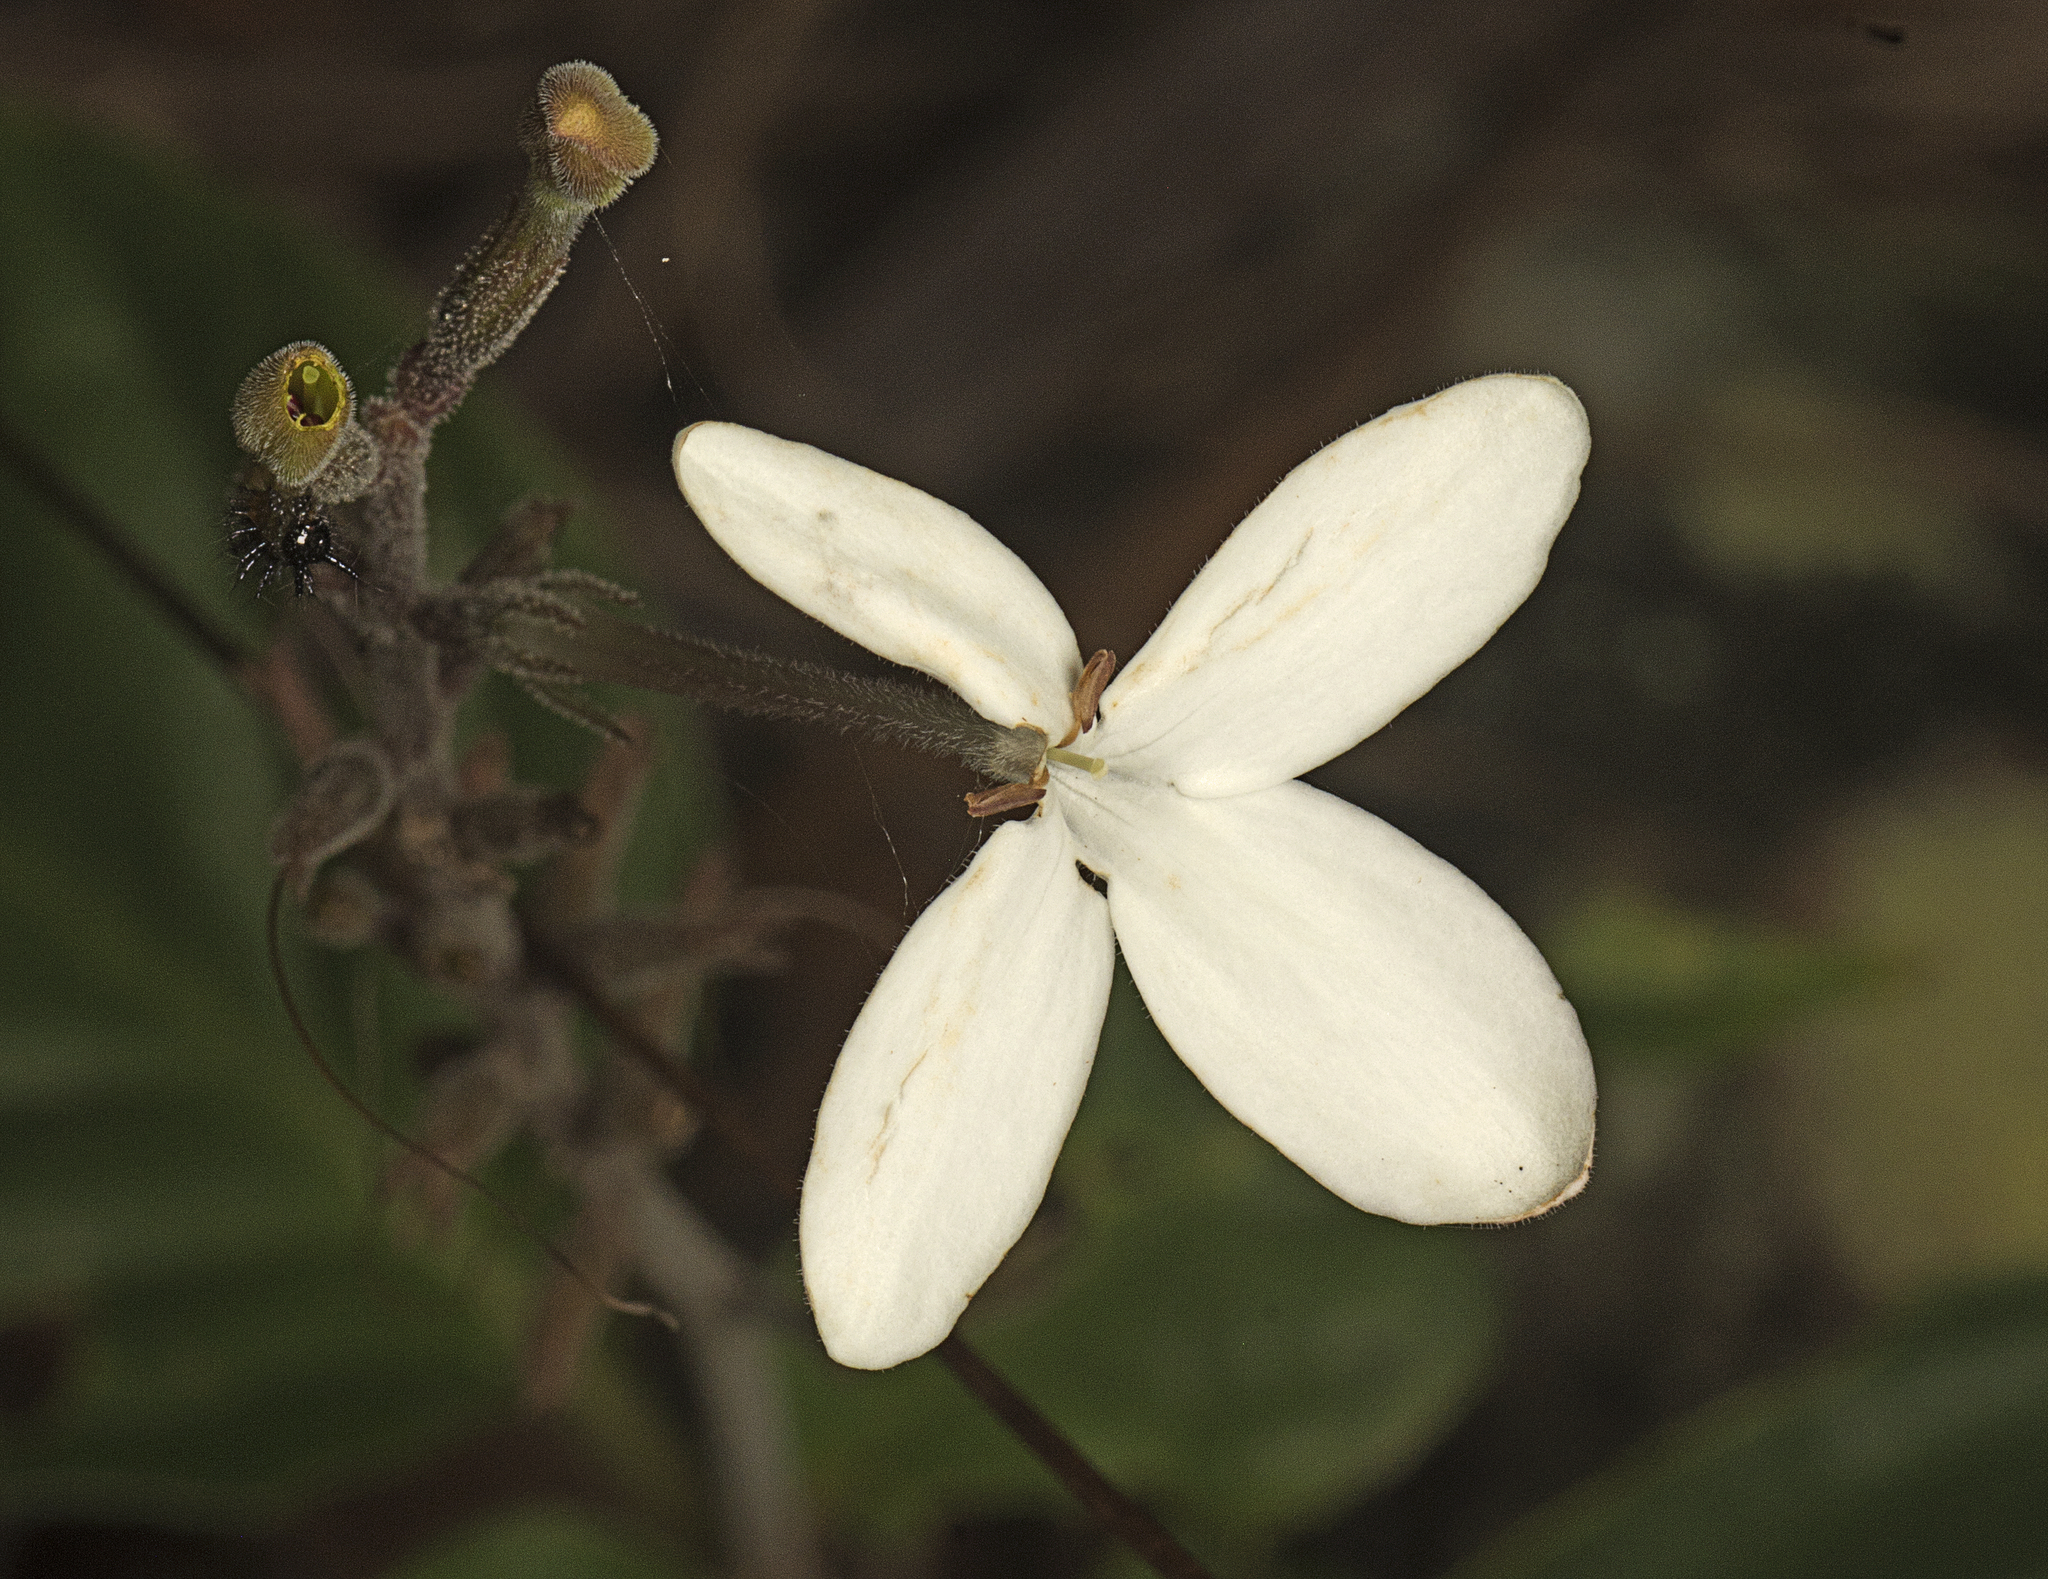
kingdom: Plantae
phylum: Tracheophyta
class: Magnoliopsida
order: Lamiales
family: Acanthaceae
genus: Pseuderanthemum
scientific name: Pseuderanthemum variabile
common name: Night and afternoon
